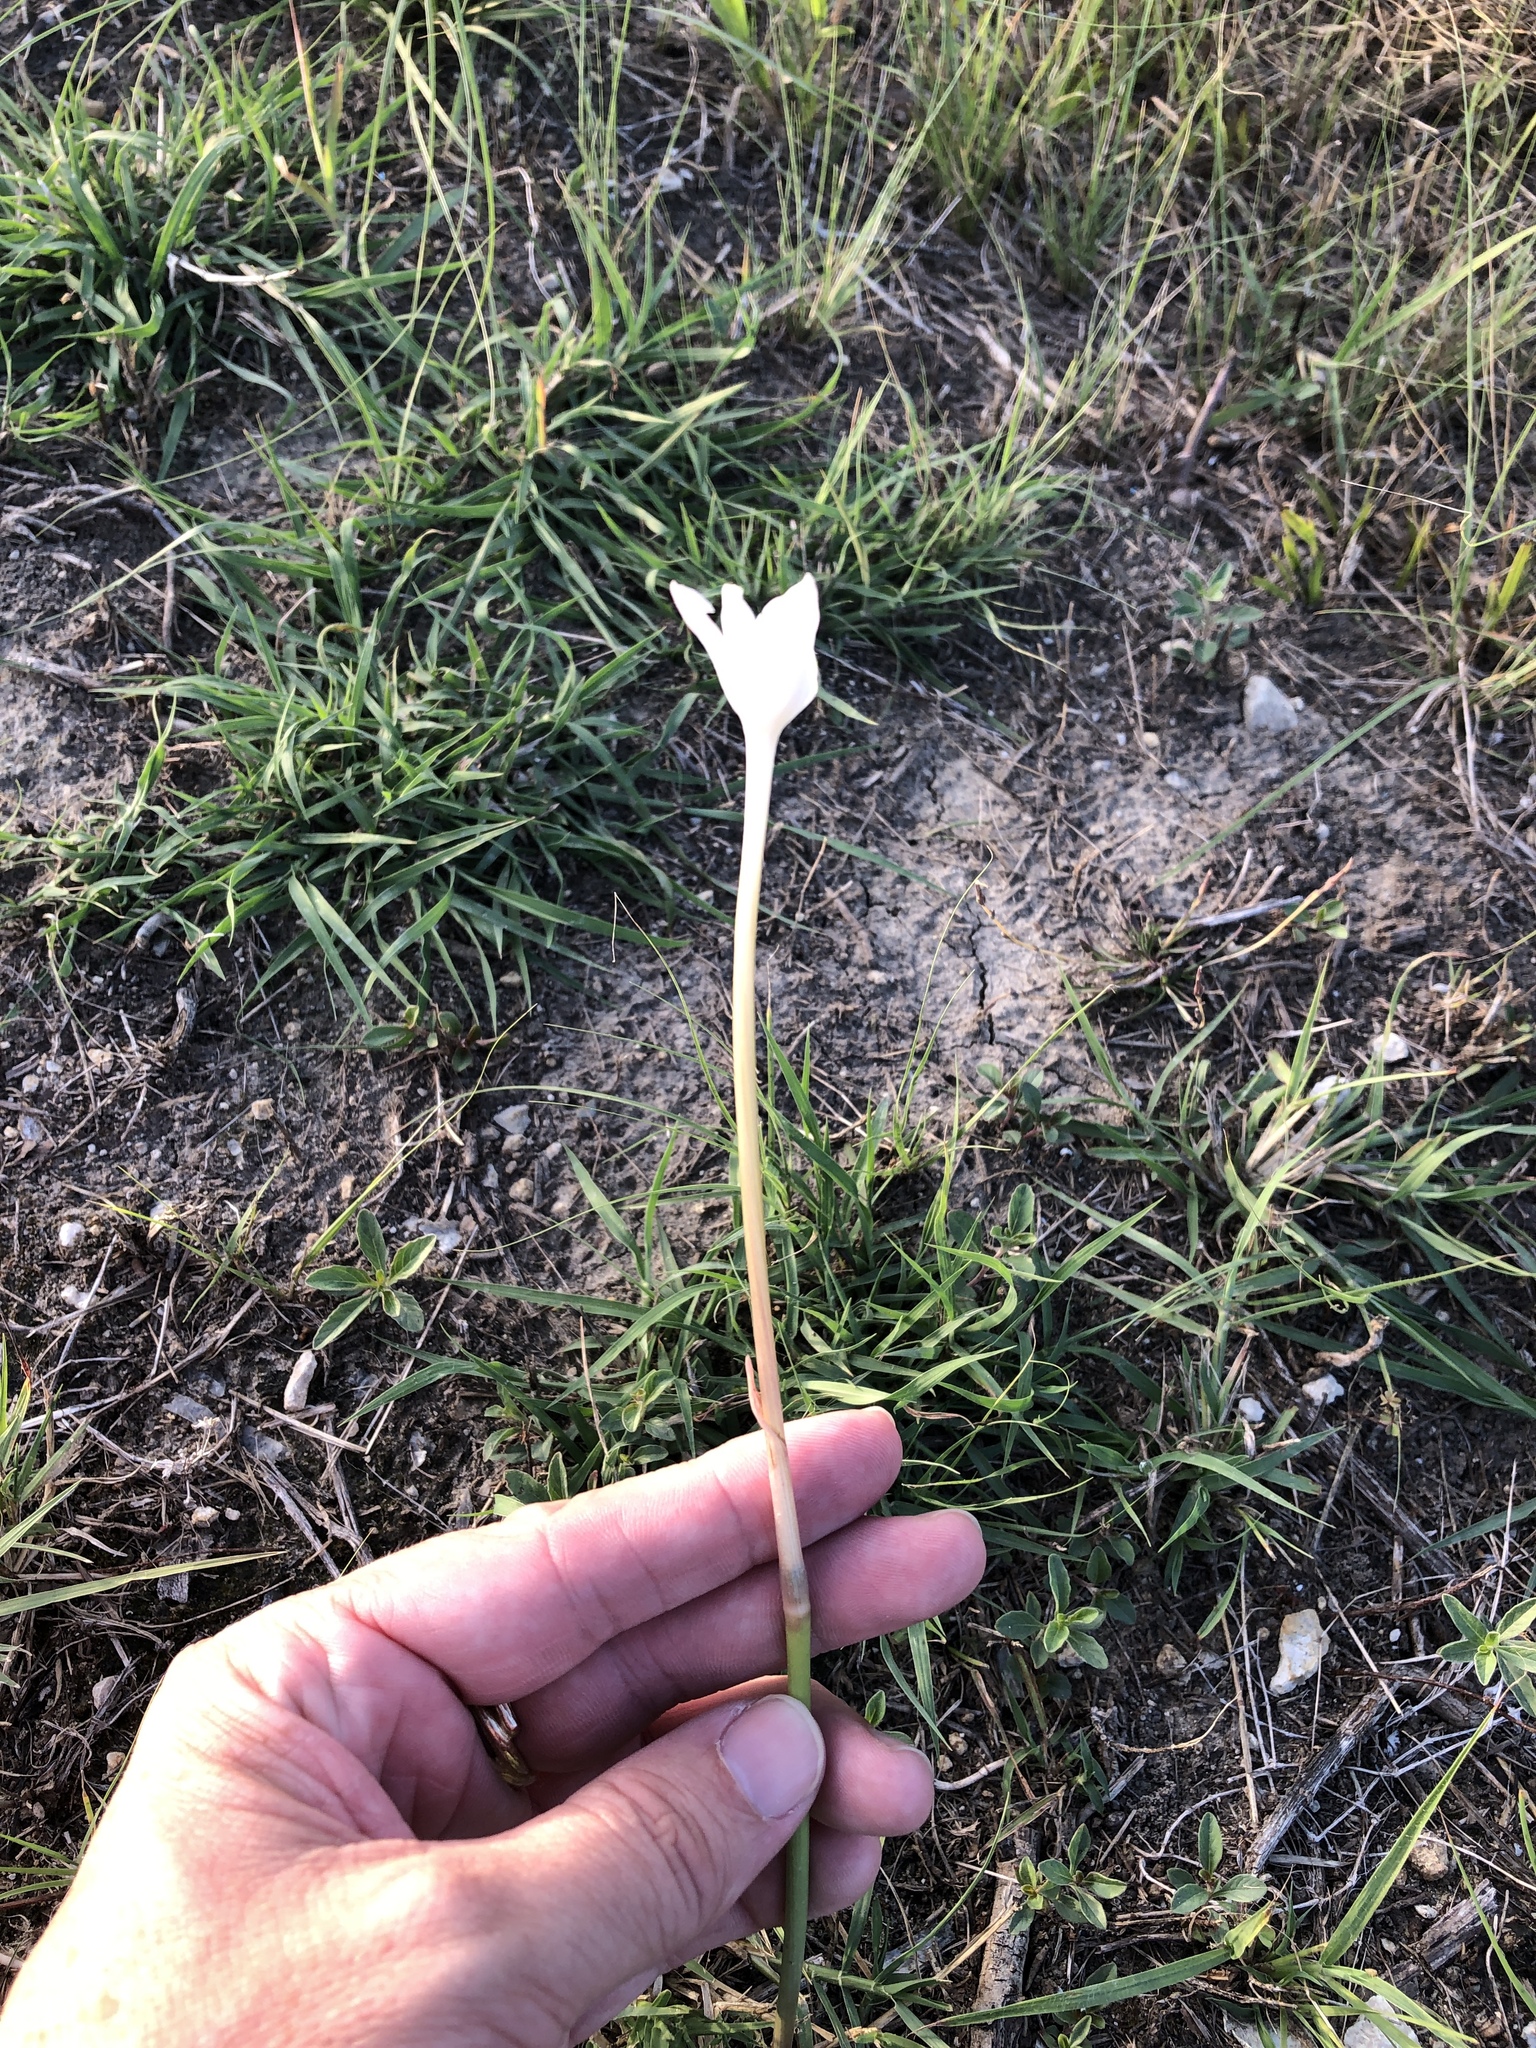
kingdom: Plantae
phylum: Tracheophyta
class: Liliopsida
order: Asparagales
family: Amaryllidaceae
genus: Zephyranthes
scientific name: Zephyranthes chlorosolen
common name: Evening rain-lily
